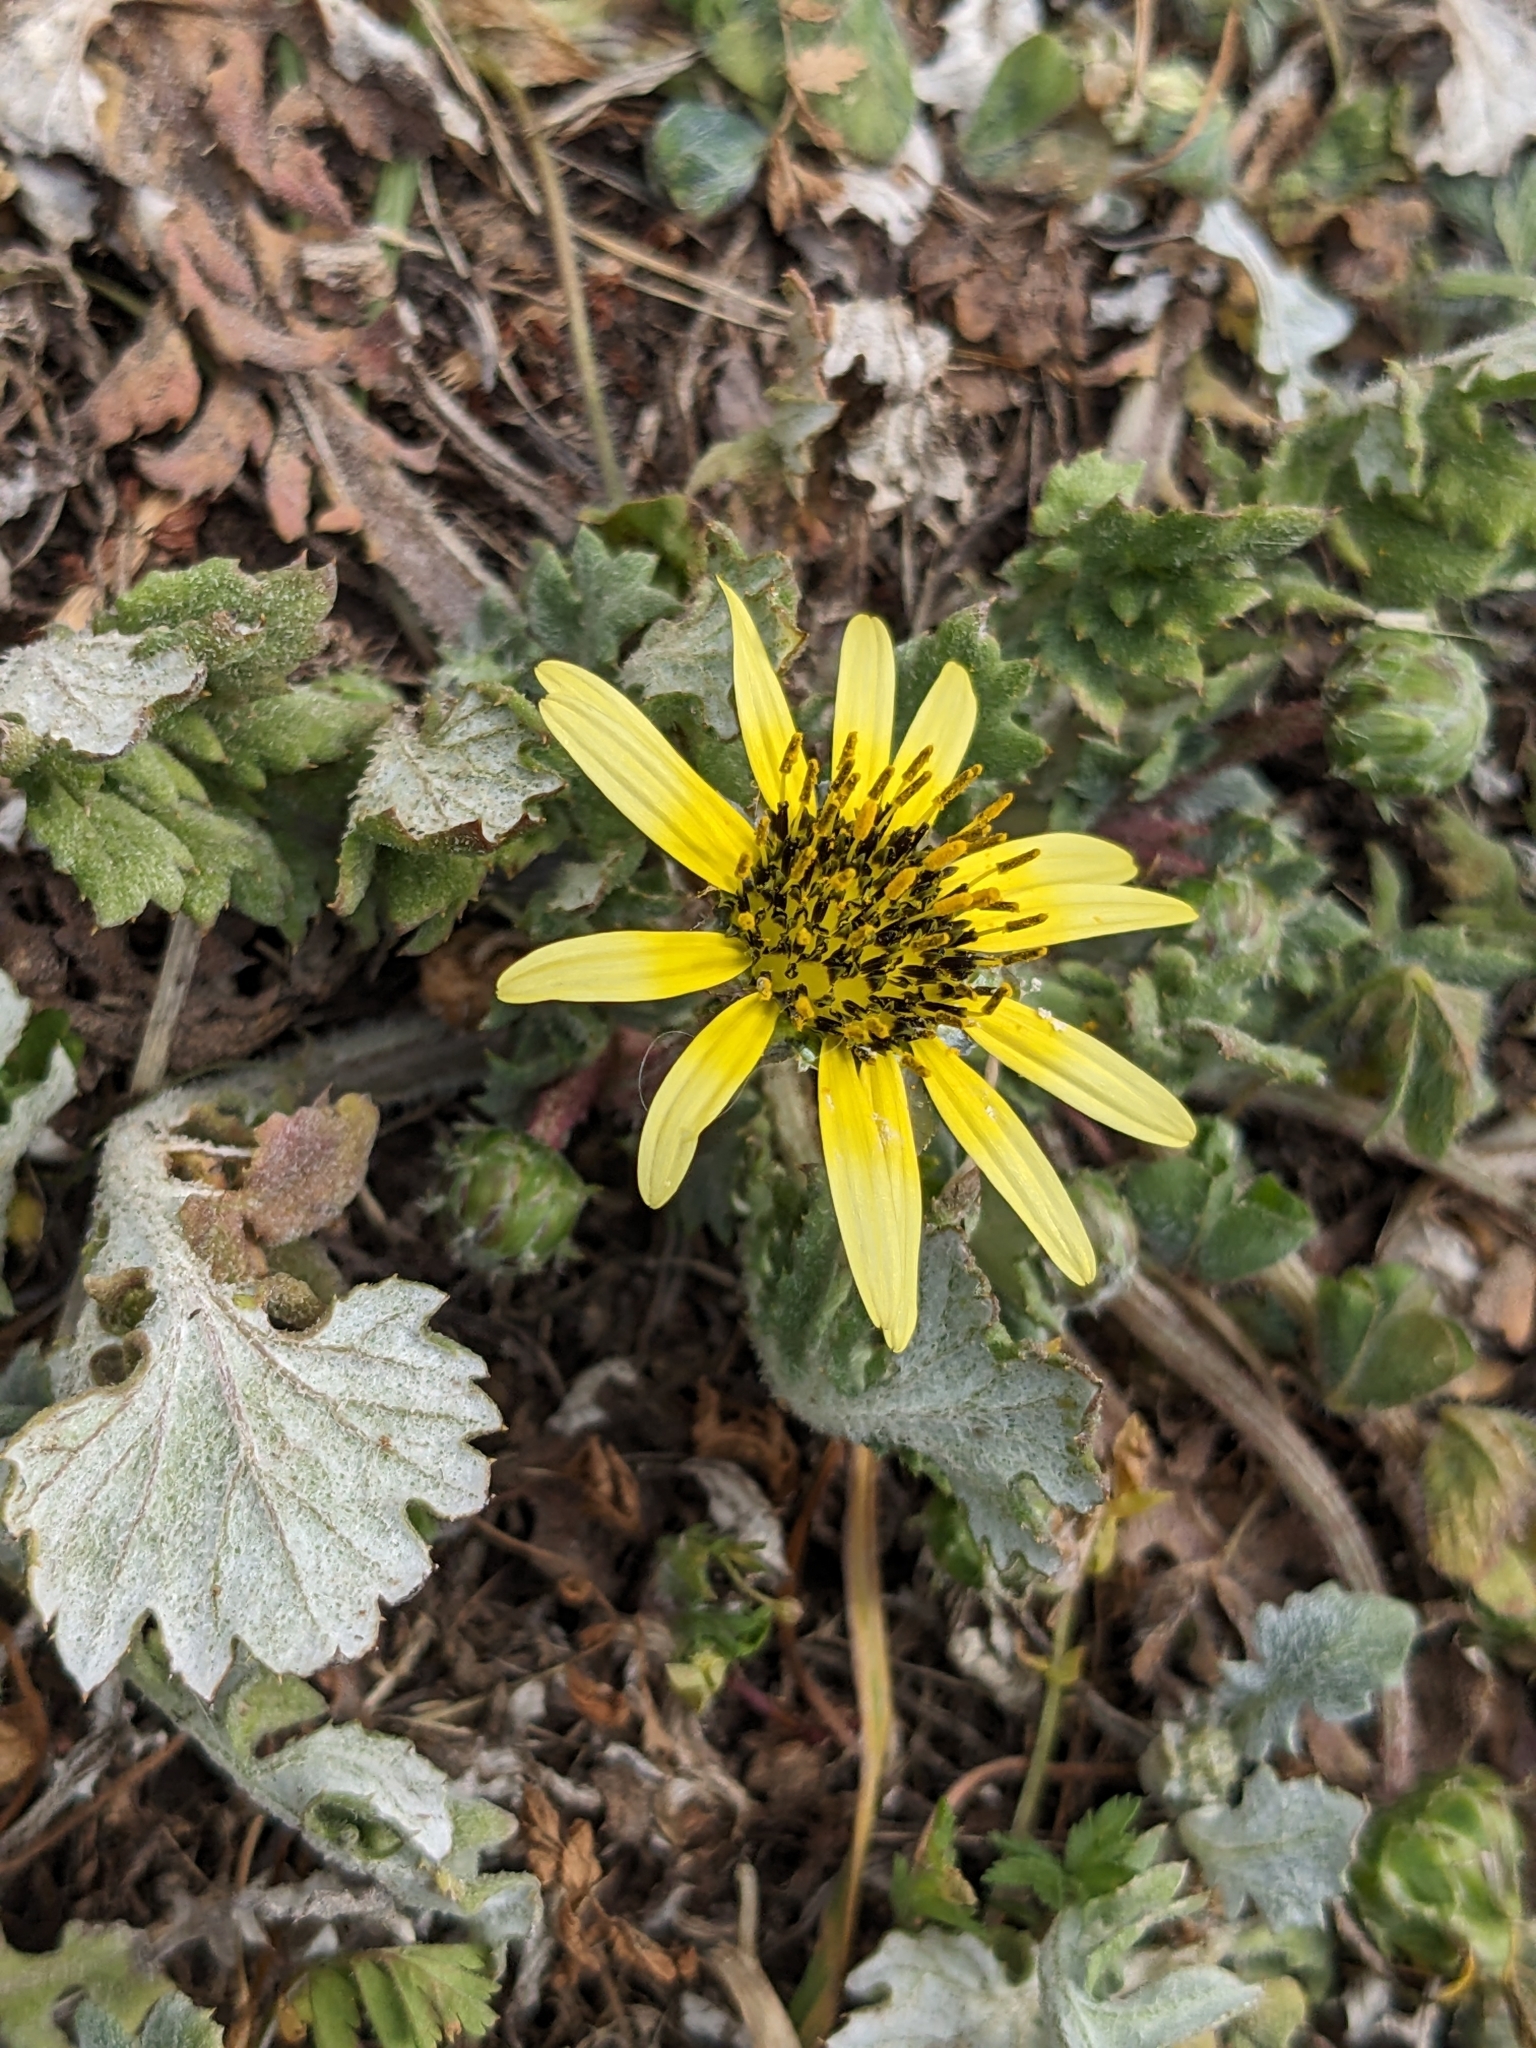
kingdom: Plantae
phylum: Tracheophyta
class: Magnoliopsida
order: Asterales
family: Asteraceae
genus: Arctotheca
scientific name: Arctotheca calendula
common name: Capeweed
